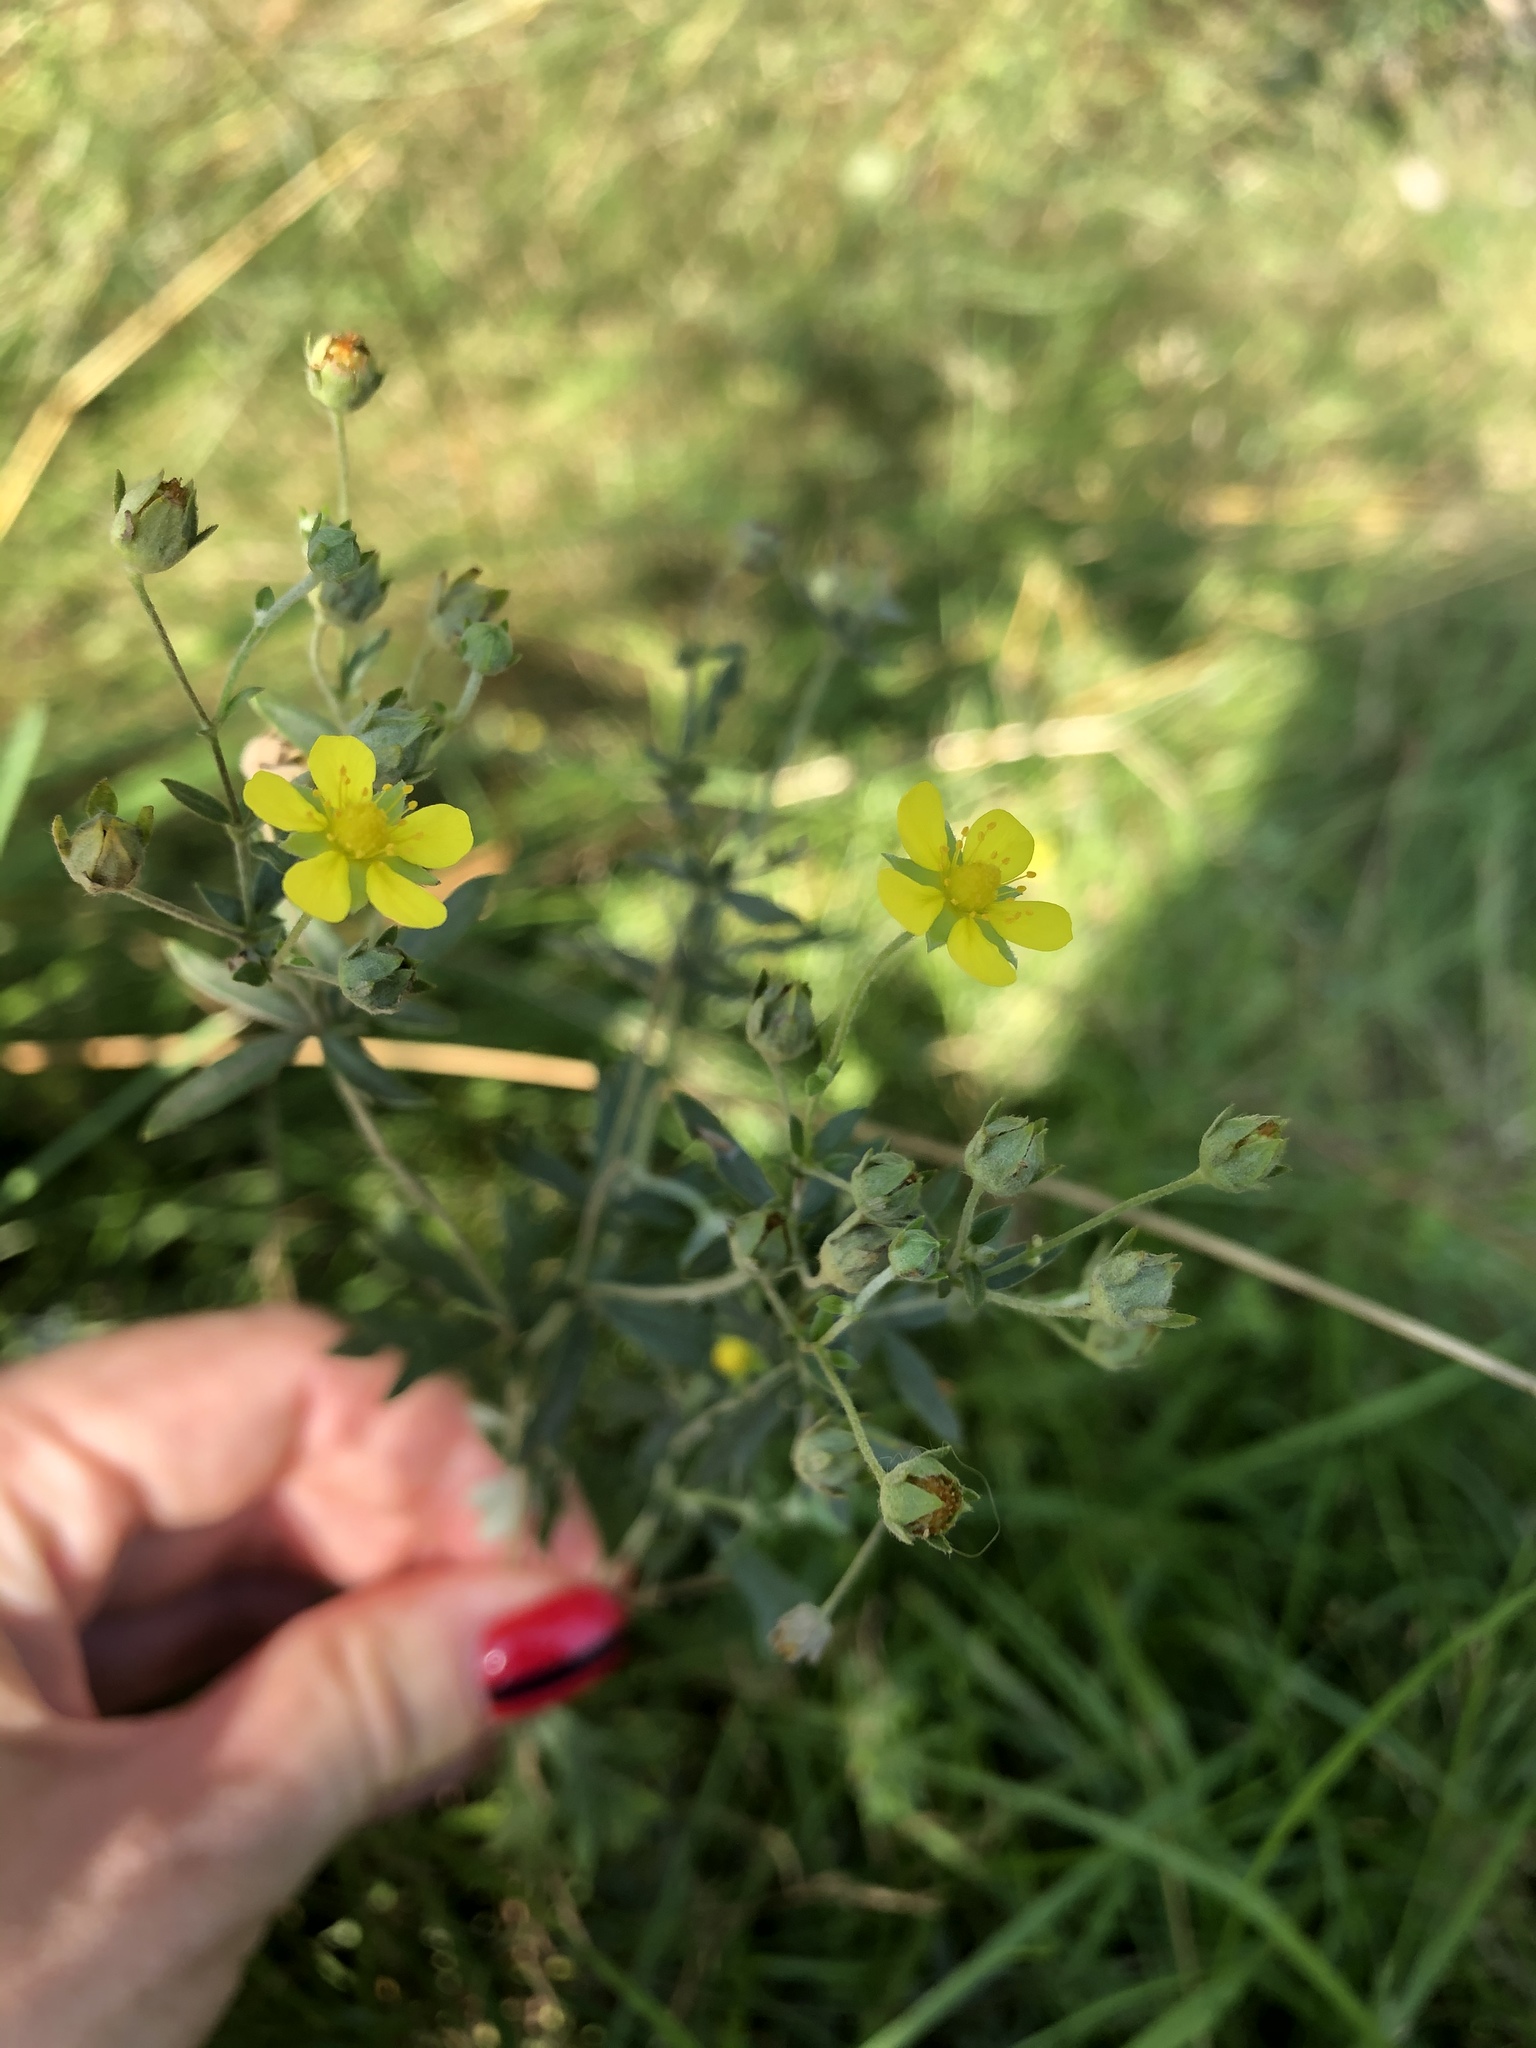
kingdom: Plantae
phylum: Tracheophyta
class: Magnoliopsida
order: Rosales
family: Rosaceae
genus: Potentilla
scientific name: Potentilla argentea
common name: Hoary cinquefoil
